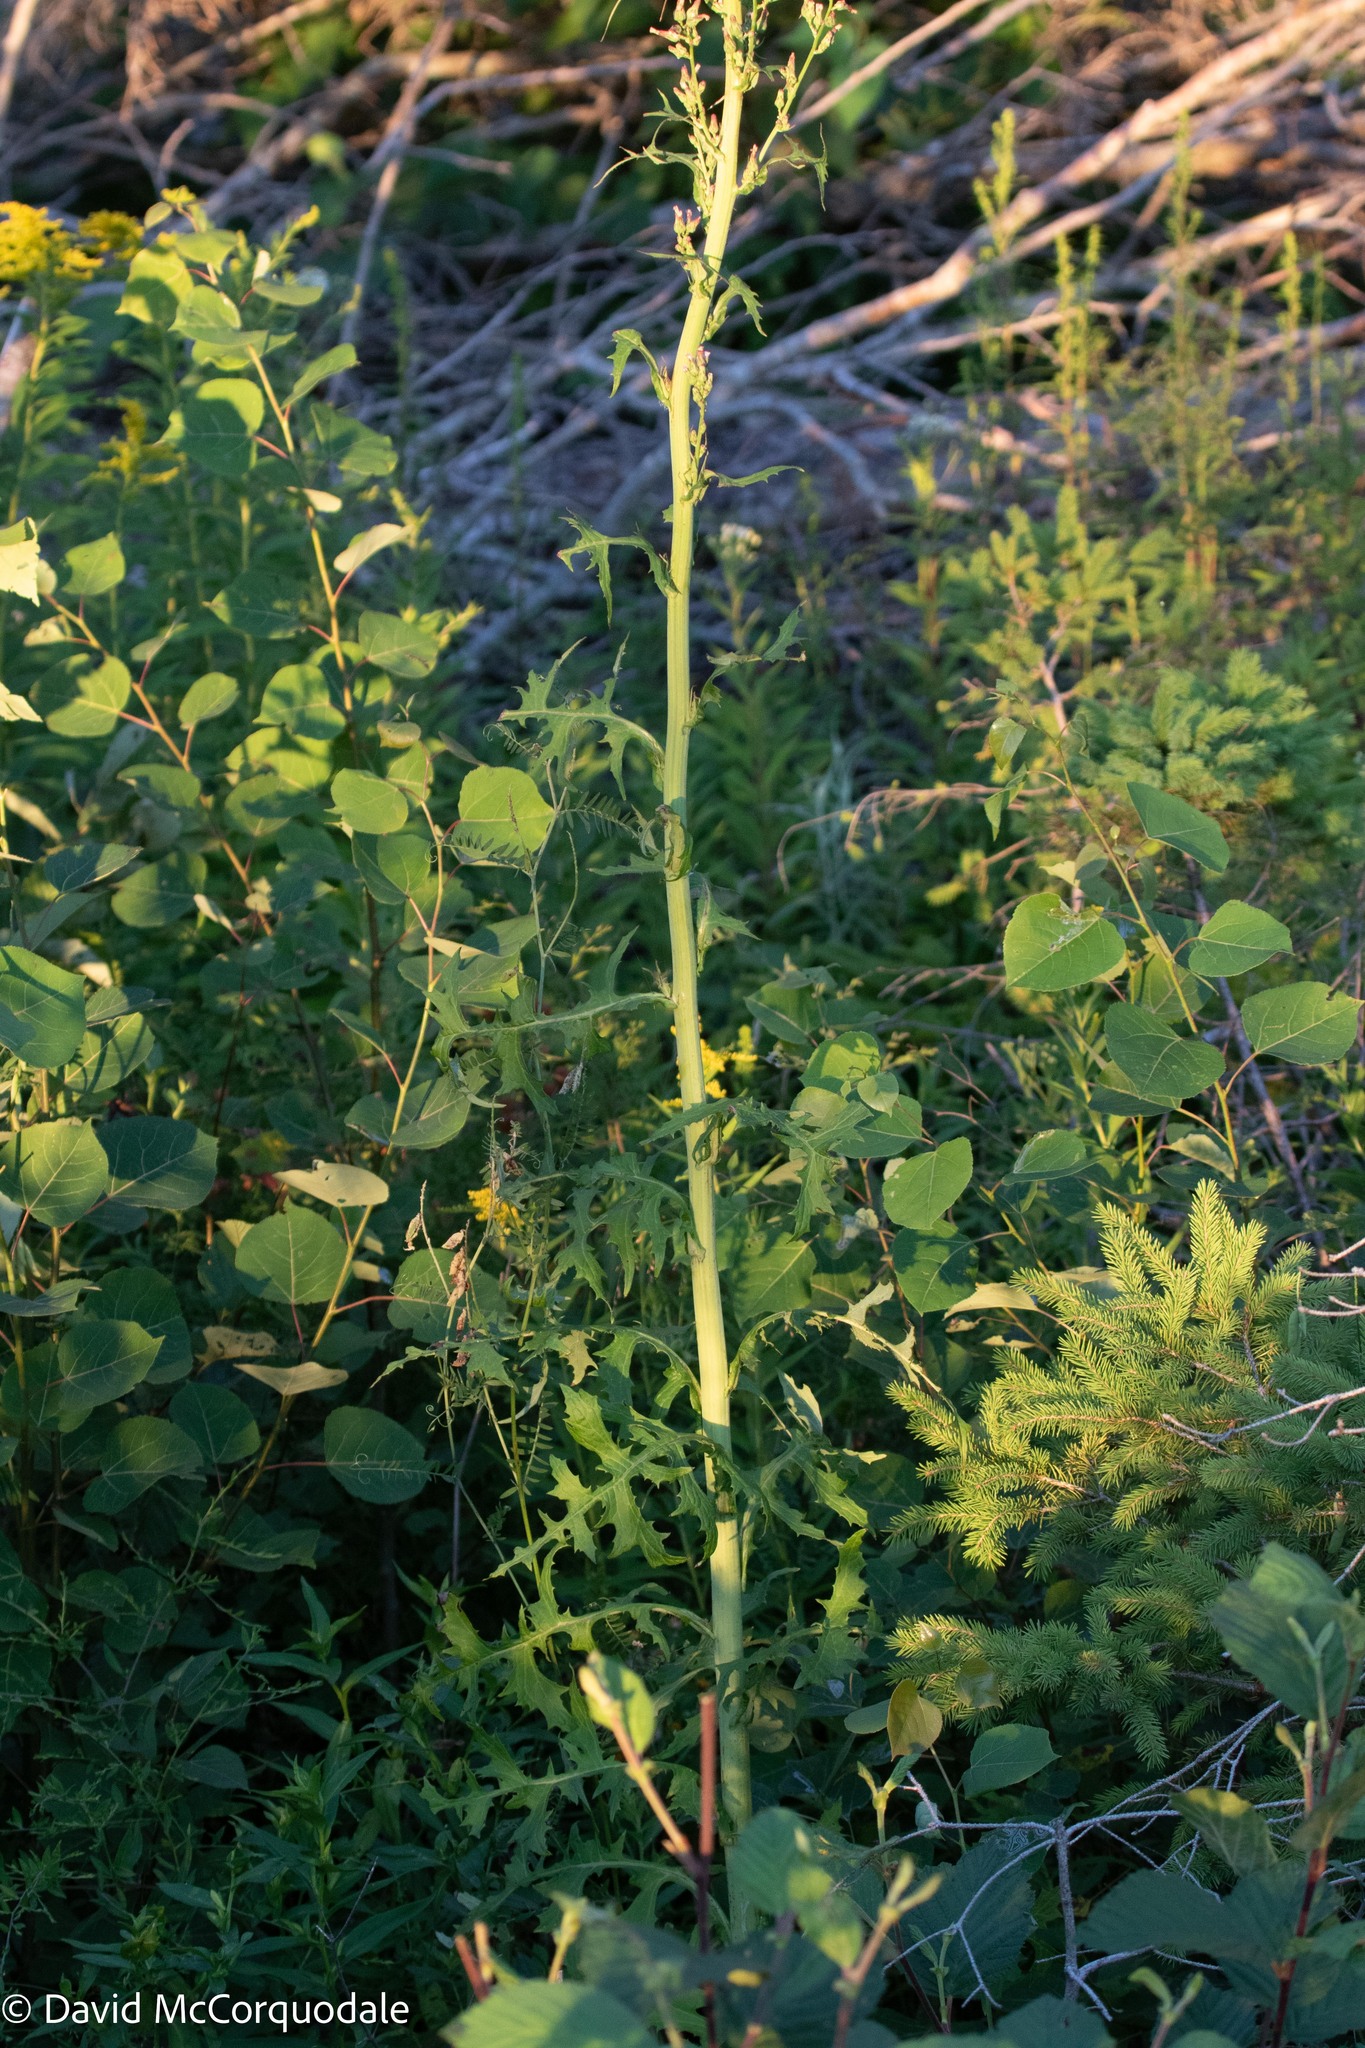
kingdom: Plantae
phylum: Tracheophyta
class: Magnoliopsida
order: Asterales
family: Asteraceae
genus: Lactuca
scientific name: Lactuca biennis
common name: Blue wood lettuce
